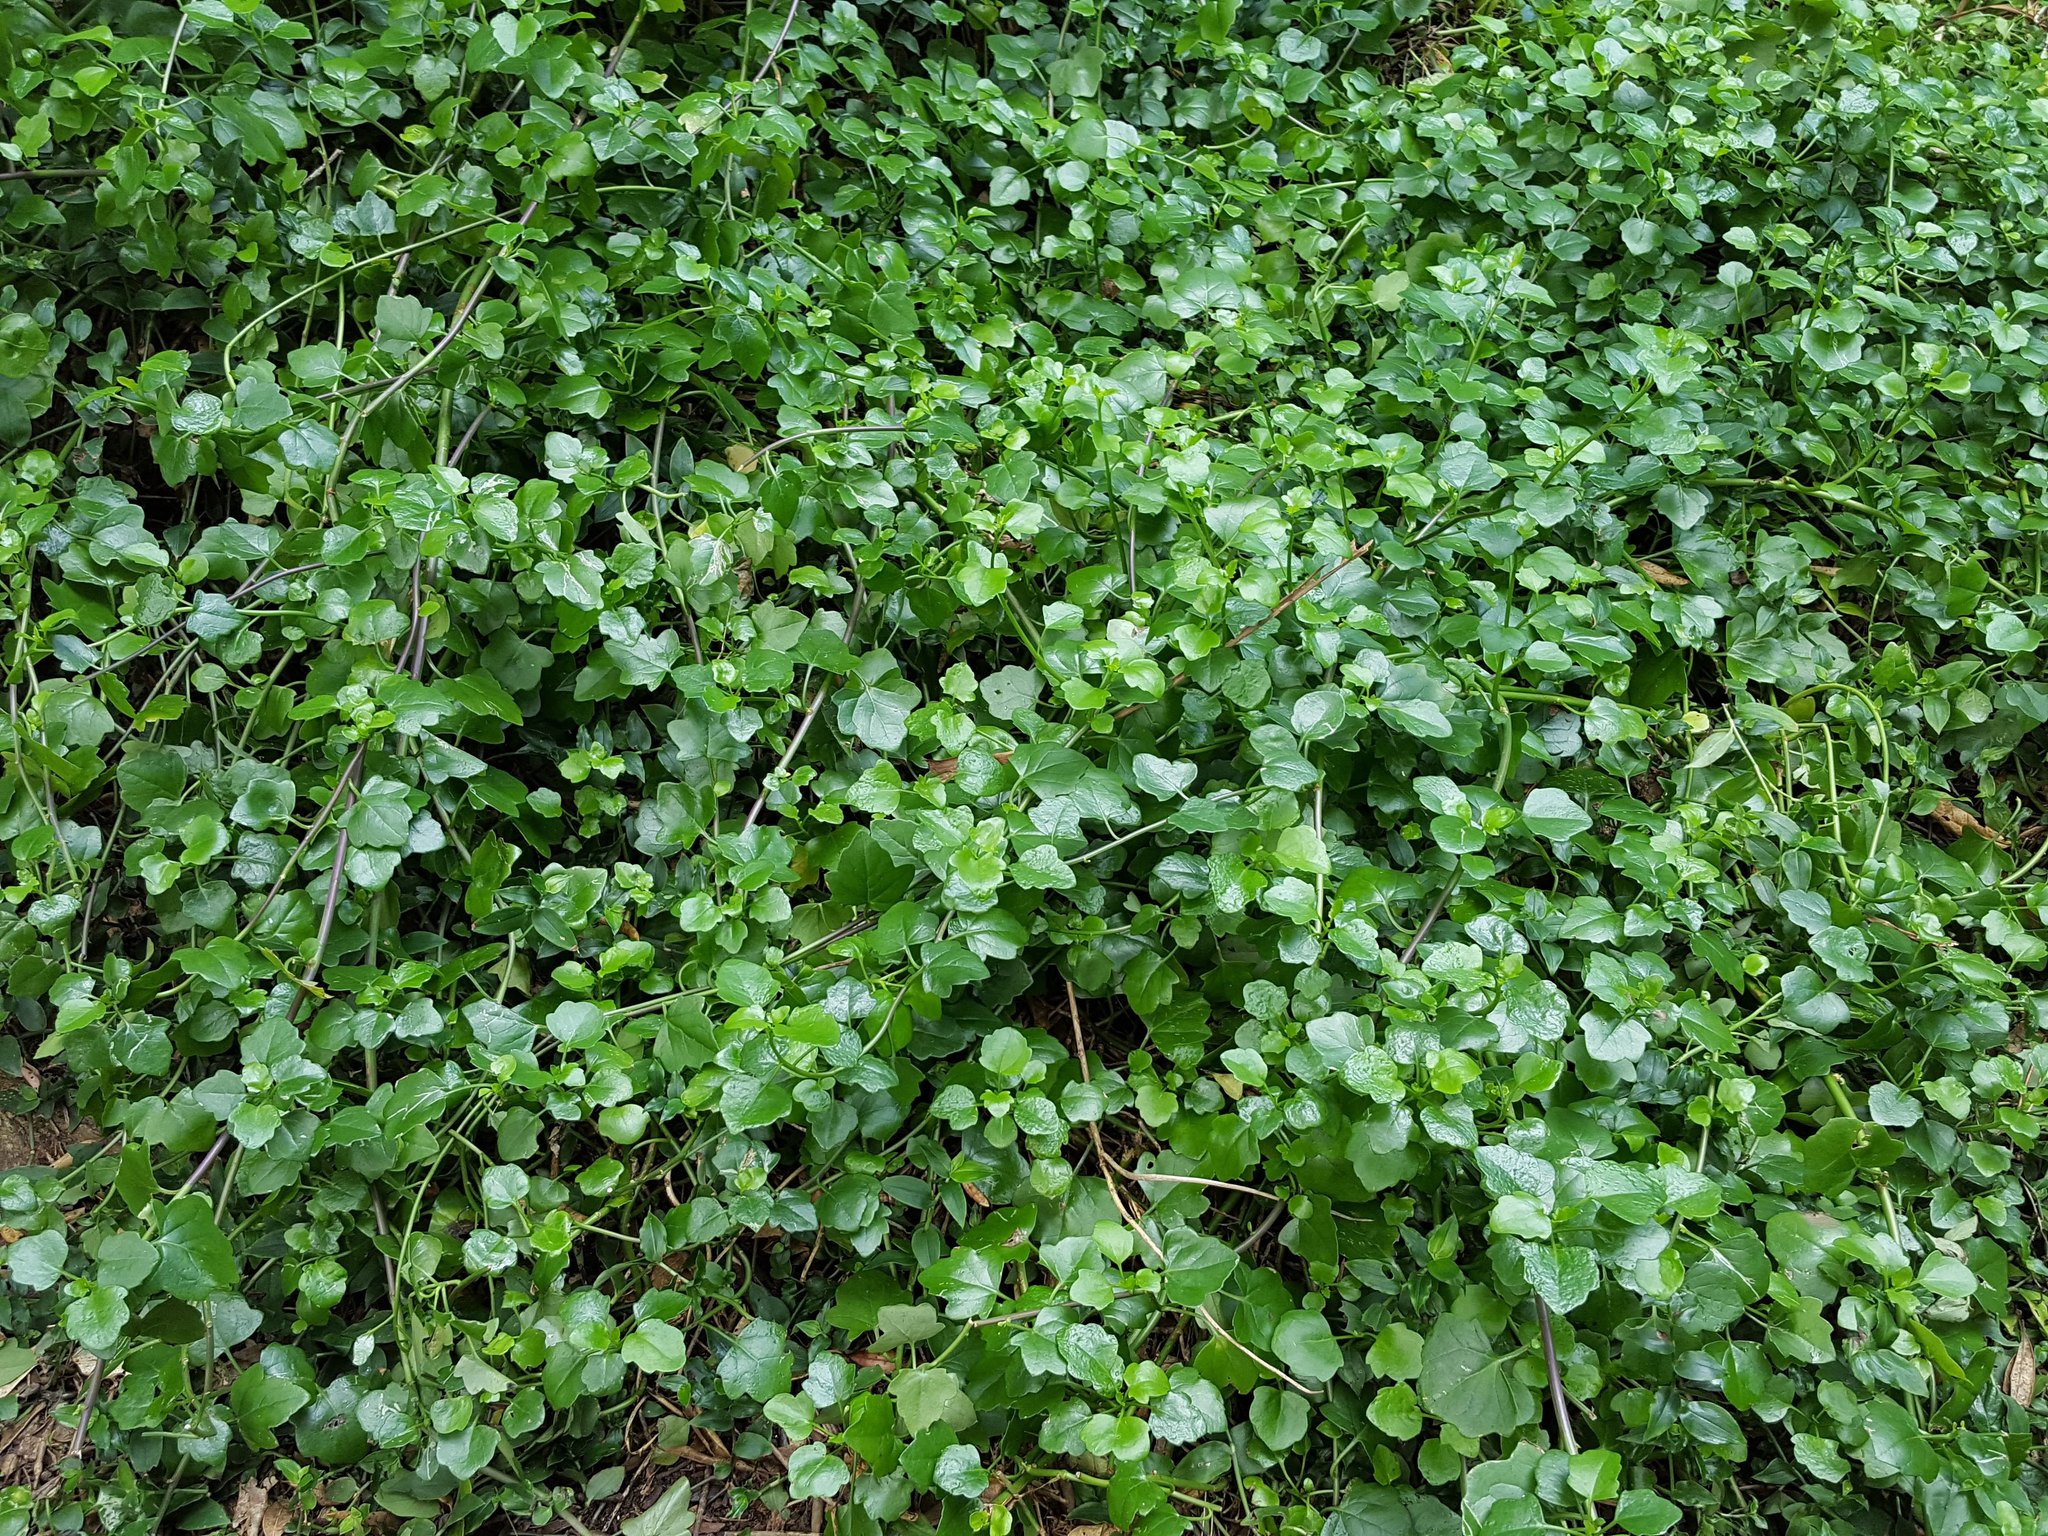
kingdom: Plantae
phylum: Tracheophyta
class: Magnoliopsida
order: Asterales
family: Asteraceae
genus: Senecio
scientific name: Senecio angulatus
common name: Climbing groundsel
